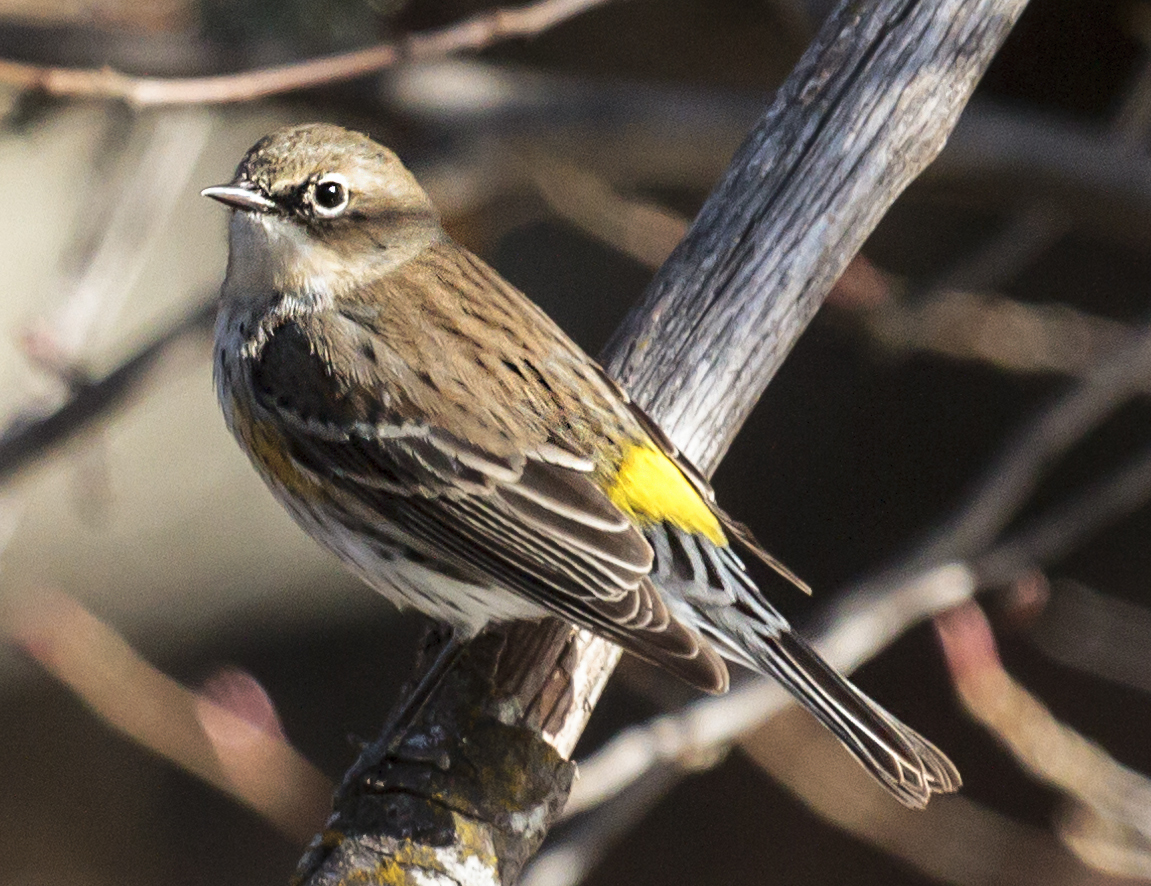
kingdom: Animalia
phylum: Chordata
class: Aves
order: Passeriformes
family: Parulidae
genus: Setophaga
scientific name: Setophaga coronata
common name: Myrtle warbler
